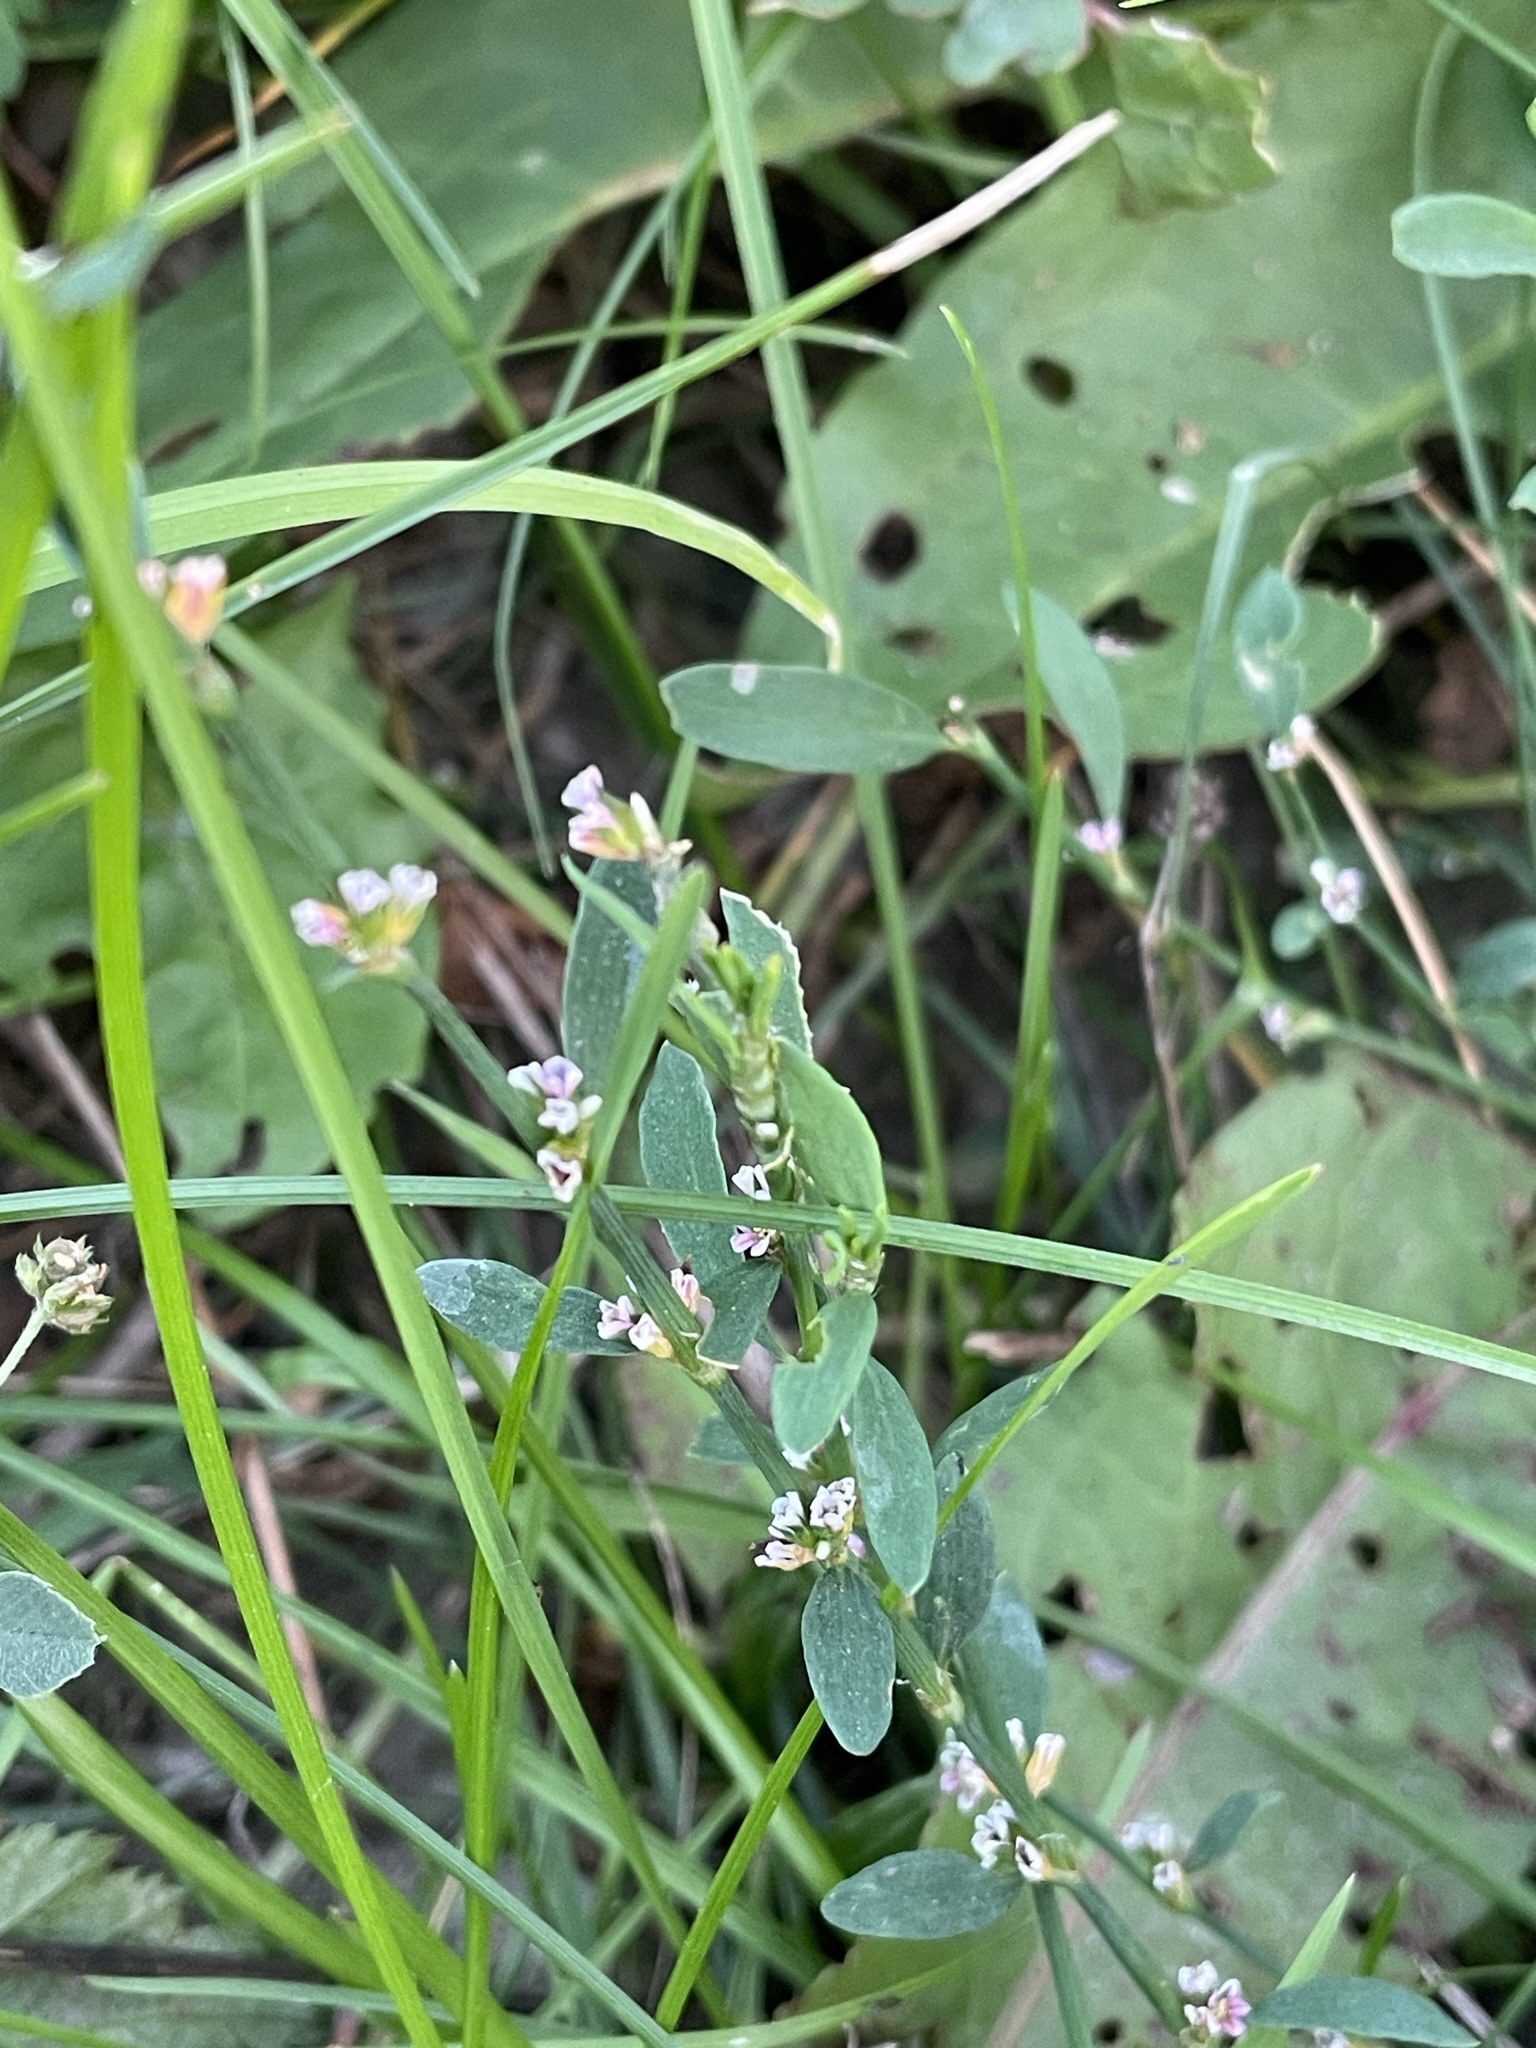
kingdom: Plantae
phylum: Tracheophyta
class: Magnoliopsida
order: Caryophyllales
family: Polygonaceae
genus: Polygonum
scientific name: Polygonum aviculare
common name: Prostrate knotweed
